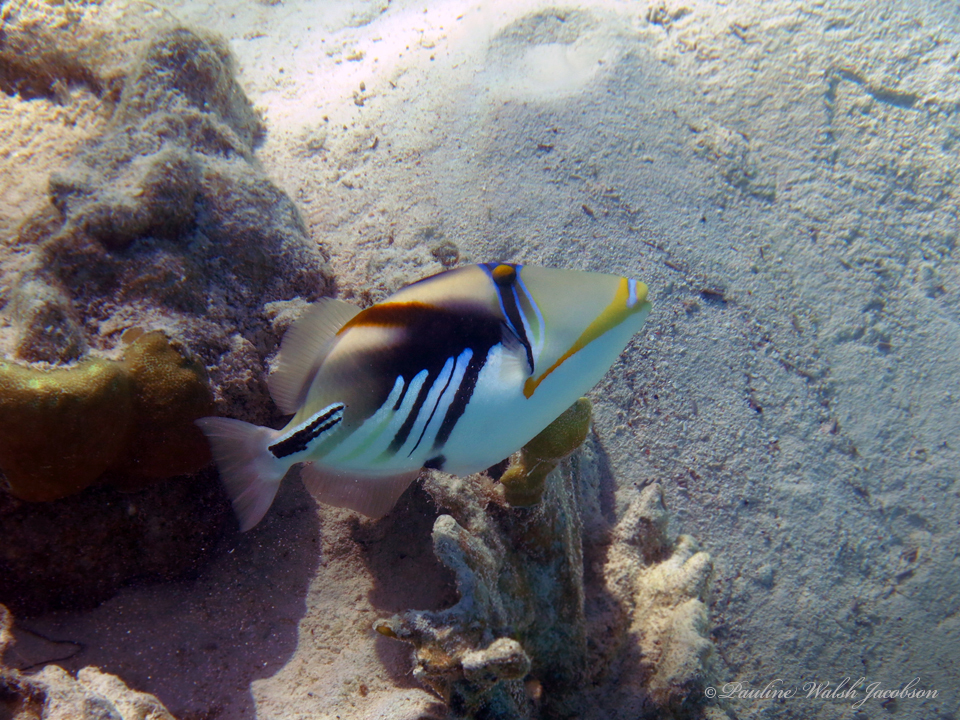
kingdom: Animalia
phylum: Chordata
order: Tetraodontiformes
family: Balistidae
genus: Rhinecanthus
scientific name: Rhinecanthus aculeatus
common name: White-banded triggerfish
